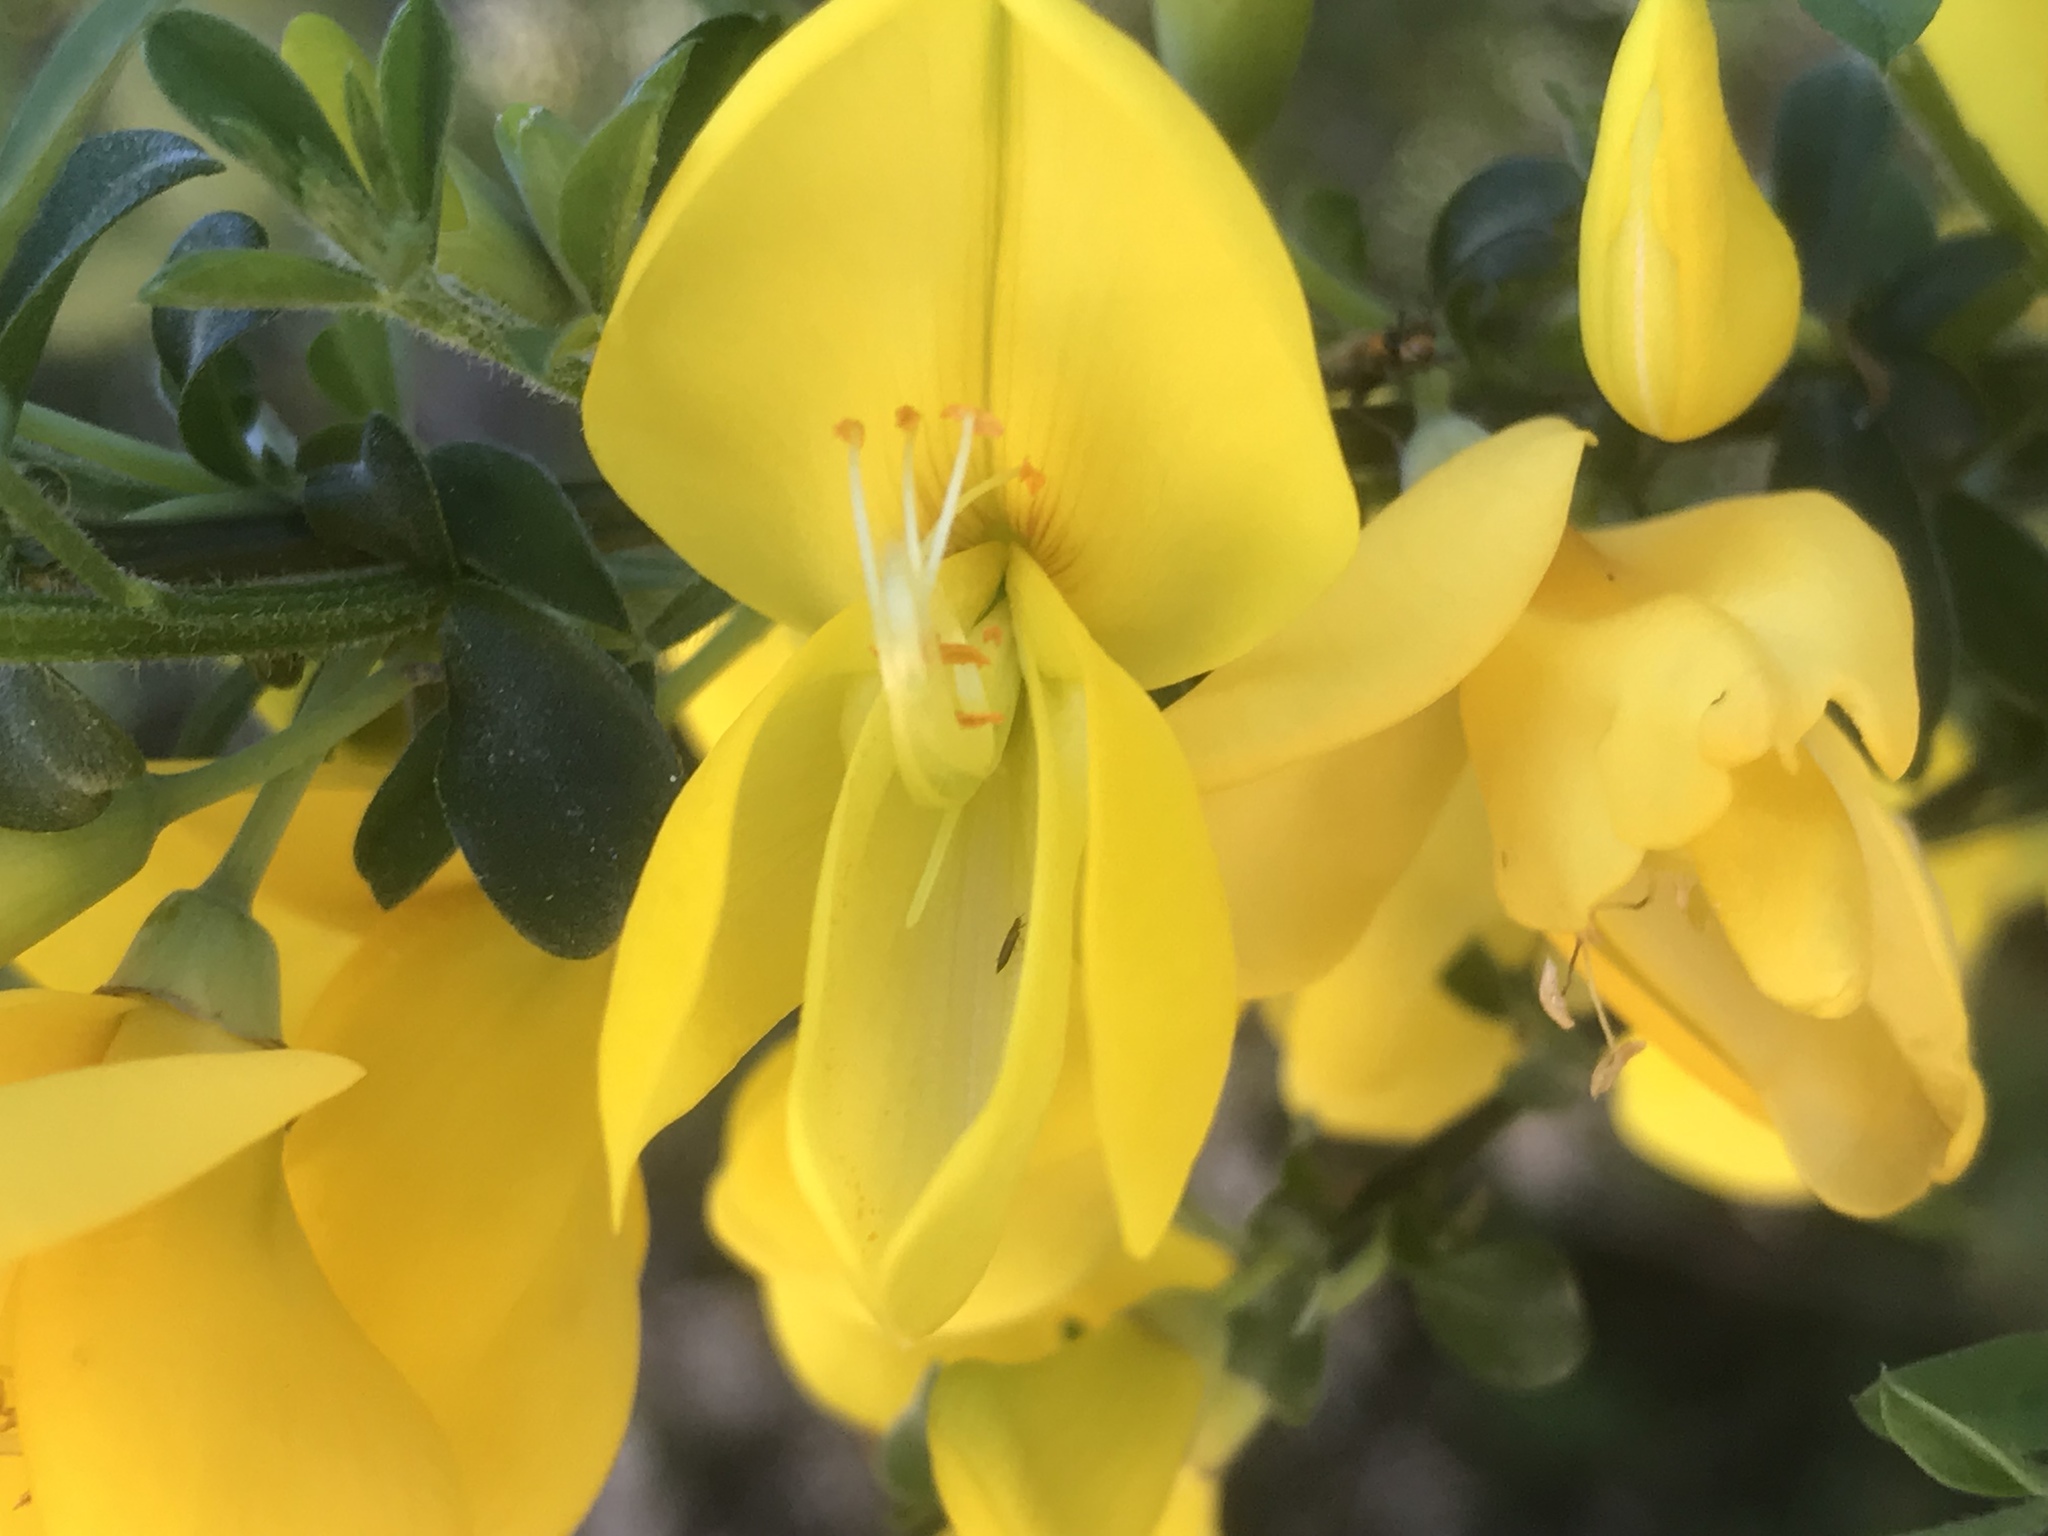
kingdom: Plantae
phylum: Tracheophyta
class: Magnoliopsida
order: Fabales
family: Fabaceae
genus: Cytisus
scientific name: Cytisus scoparius
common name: Scotch broom
